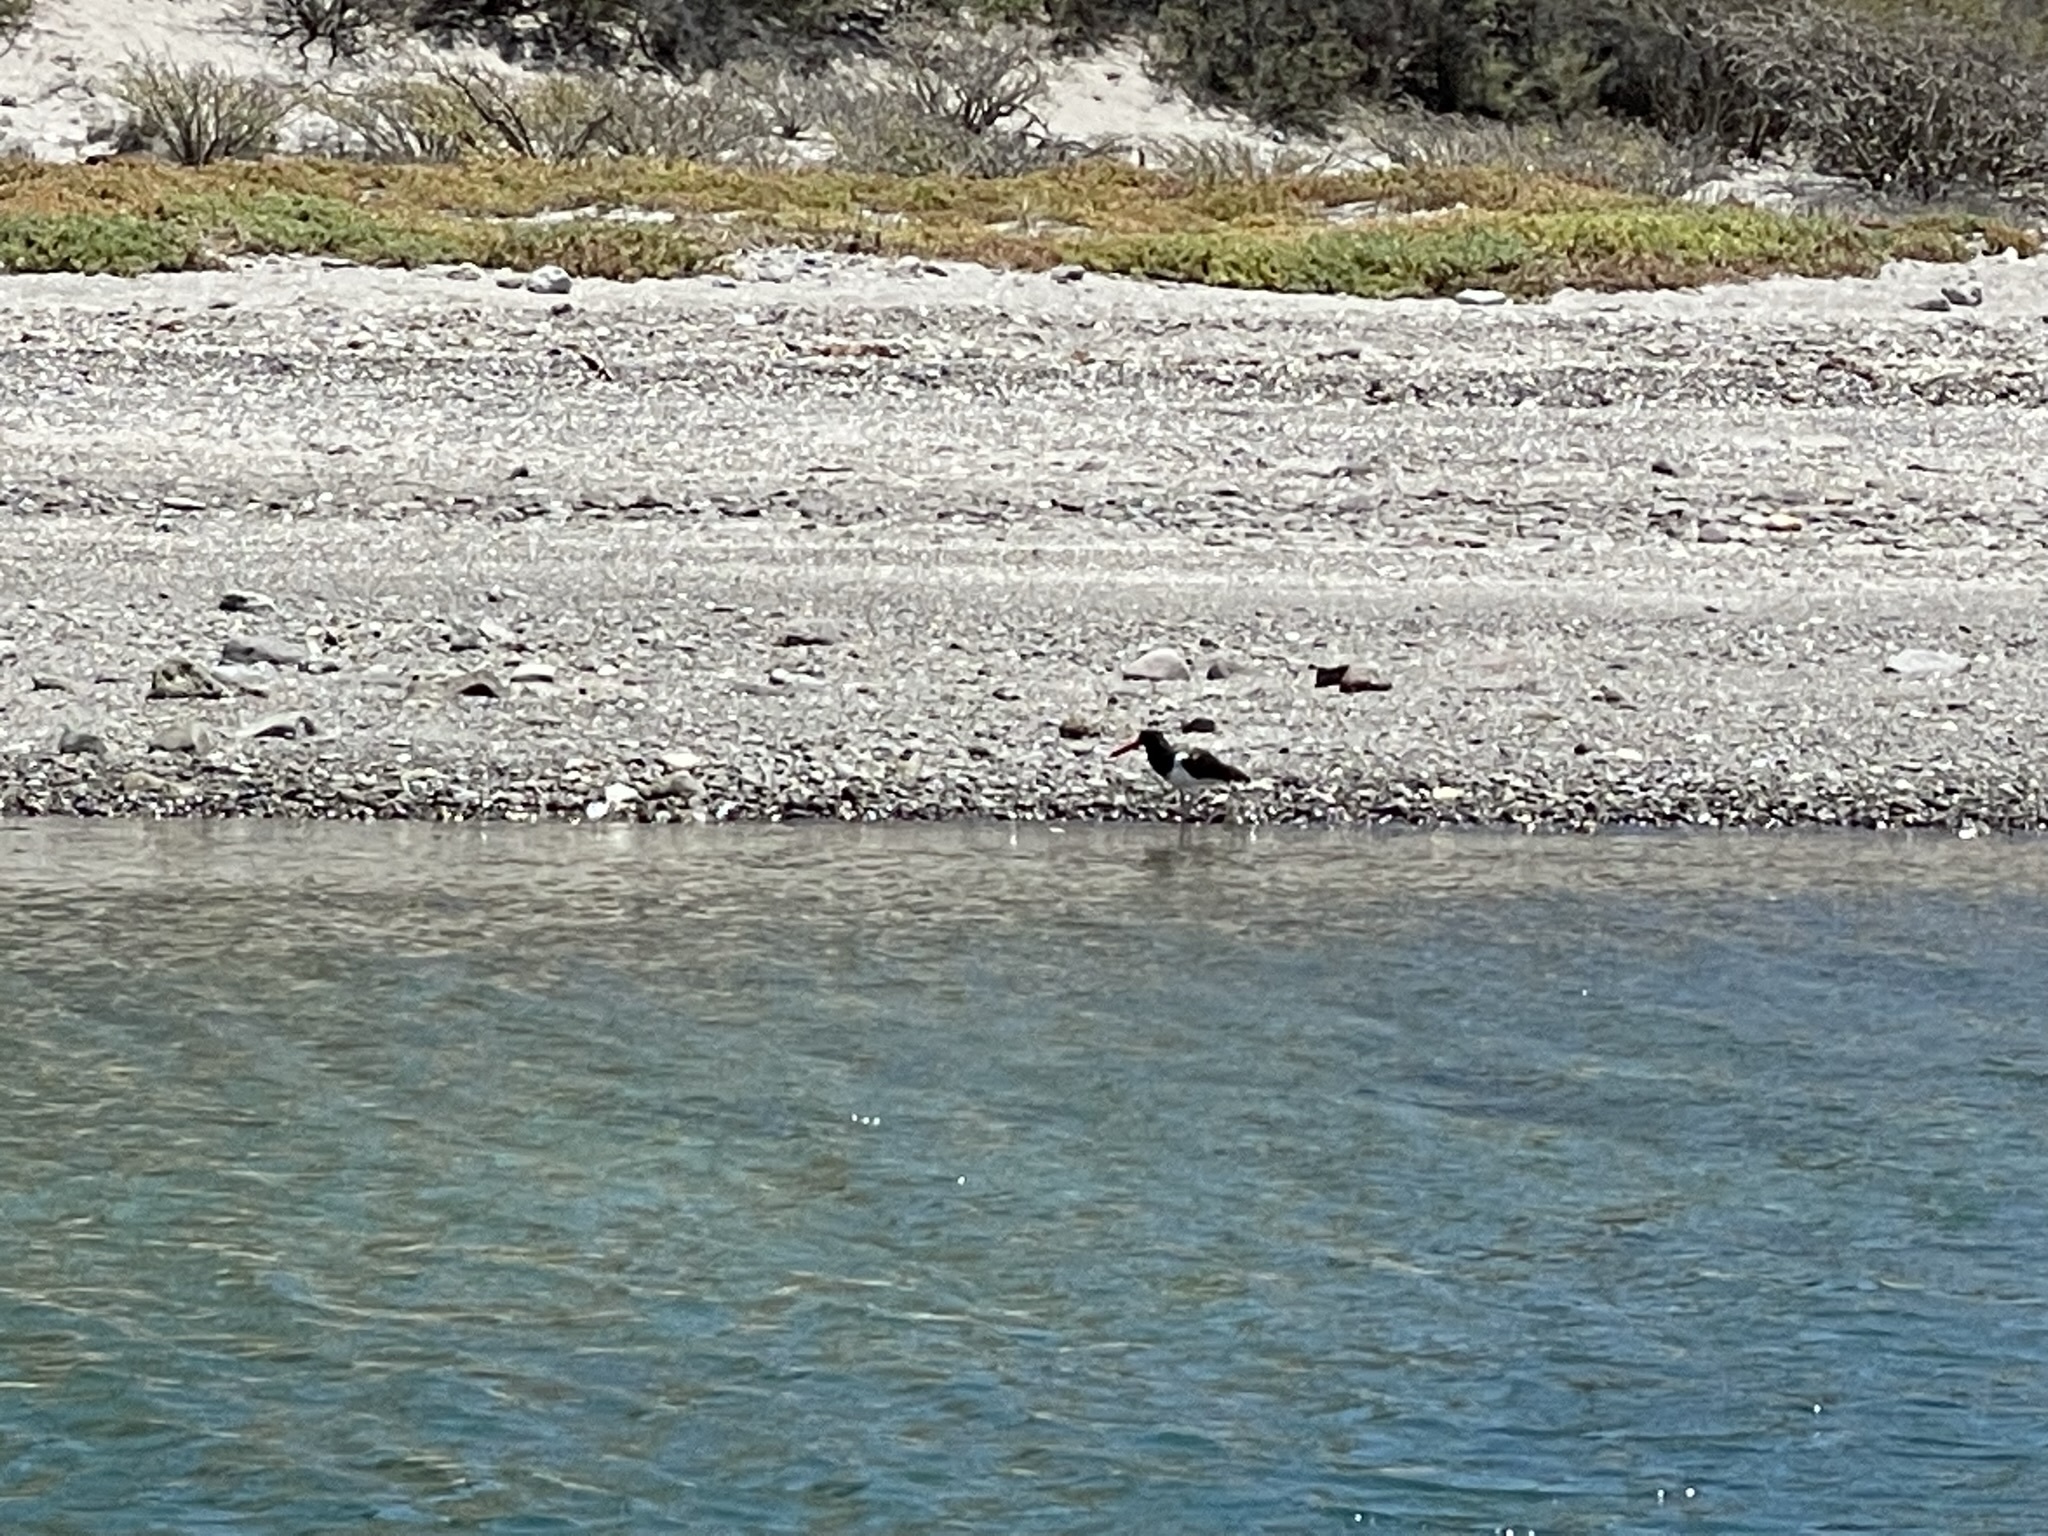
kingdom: Animalia
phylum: Chordata
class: Aves
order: Charadriiformes
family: Haematopodidae
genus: Haematopus
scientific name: Haematopus palliatus
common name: American oystercatcher
